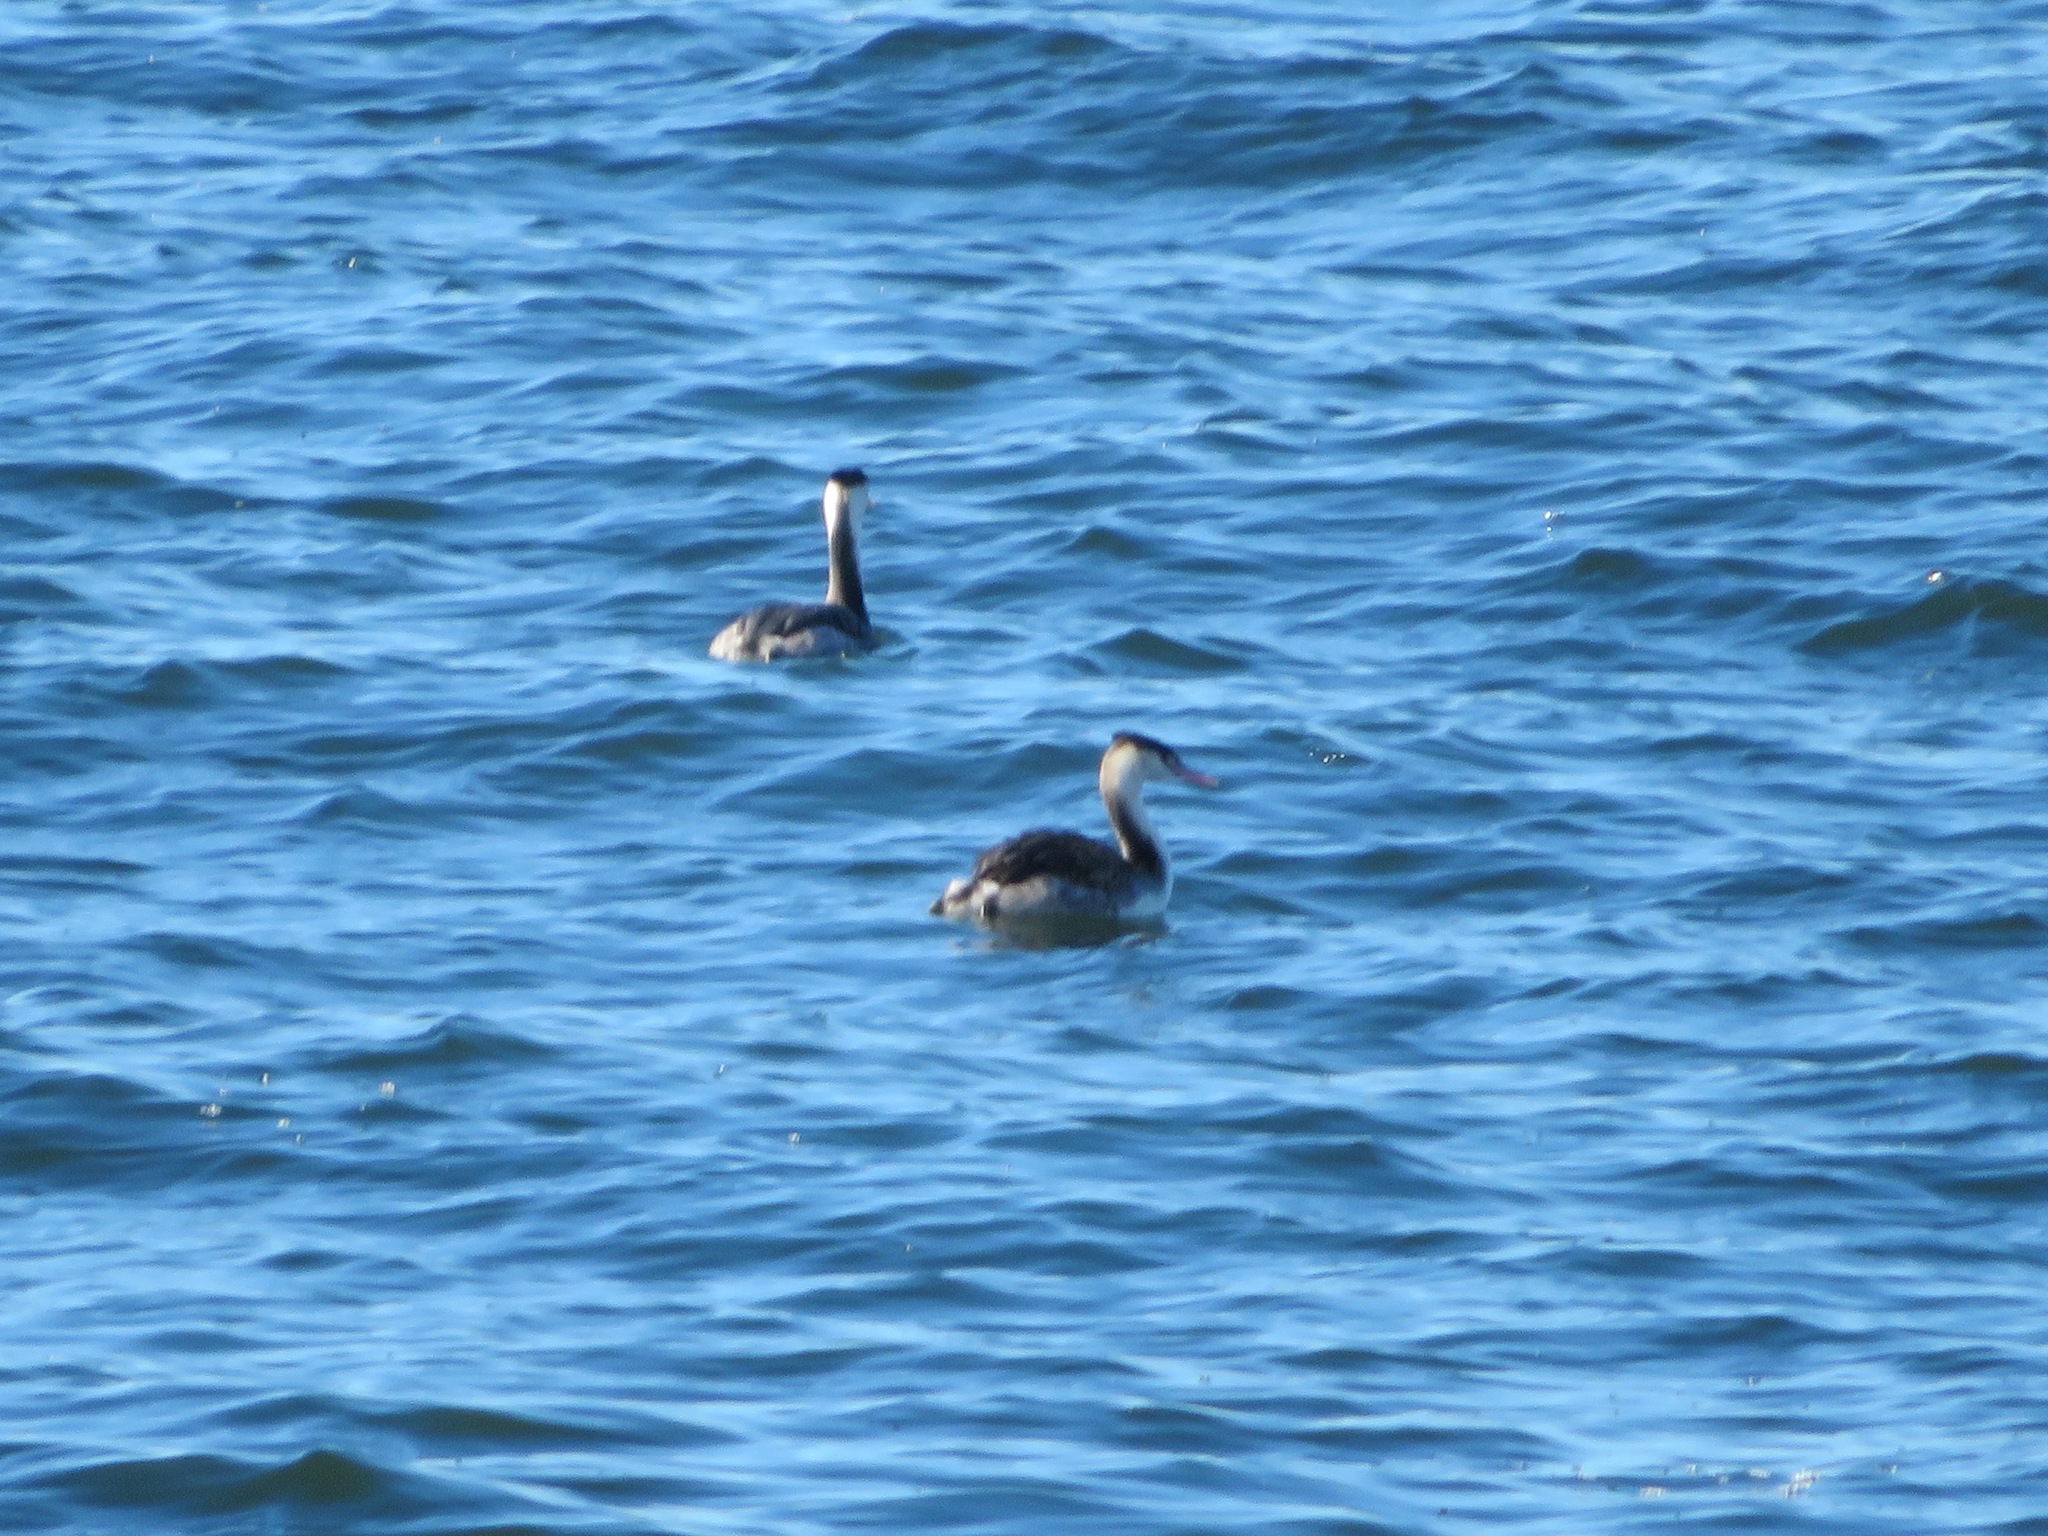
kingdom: Animalia
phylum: Chordata
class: Aves
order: Podicipediformes
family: Podicipedidae
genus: Podiceps
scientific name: Podiceps cristatus
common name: Great crested grebe
